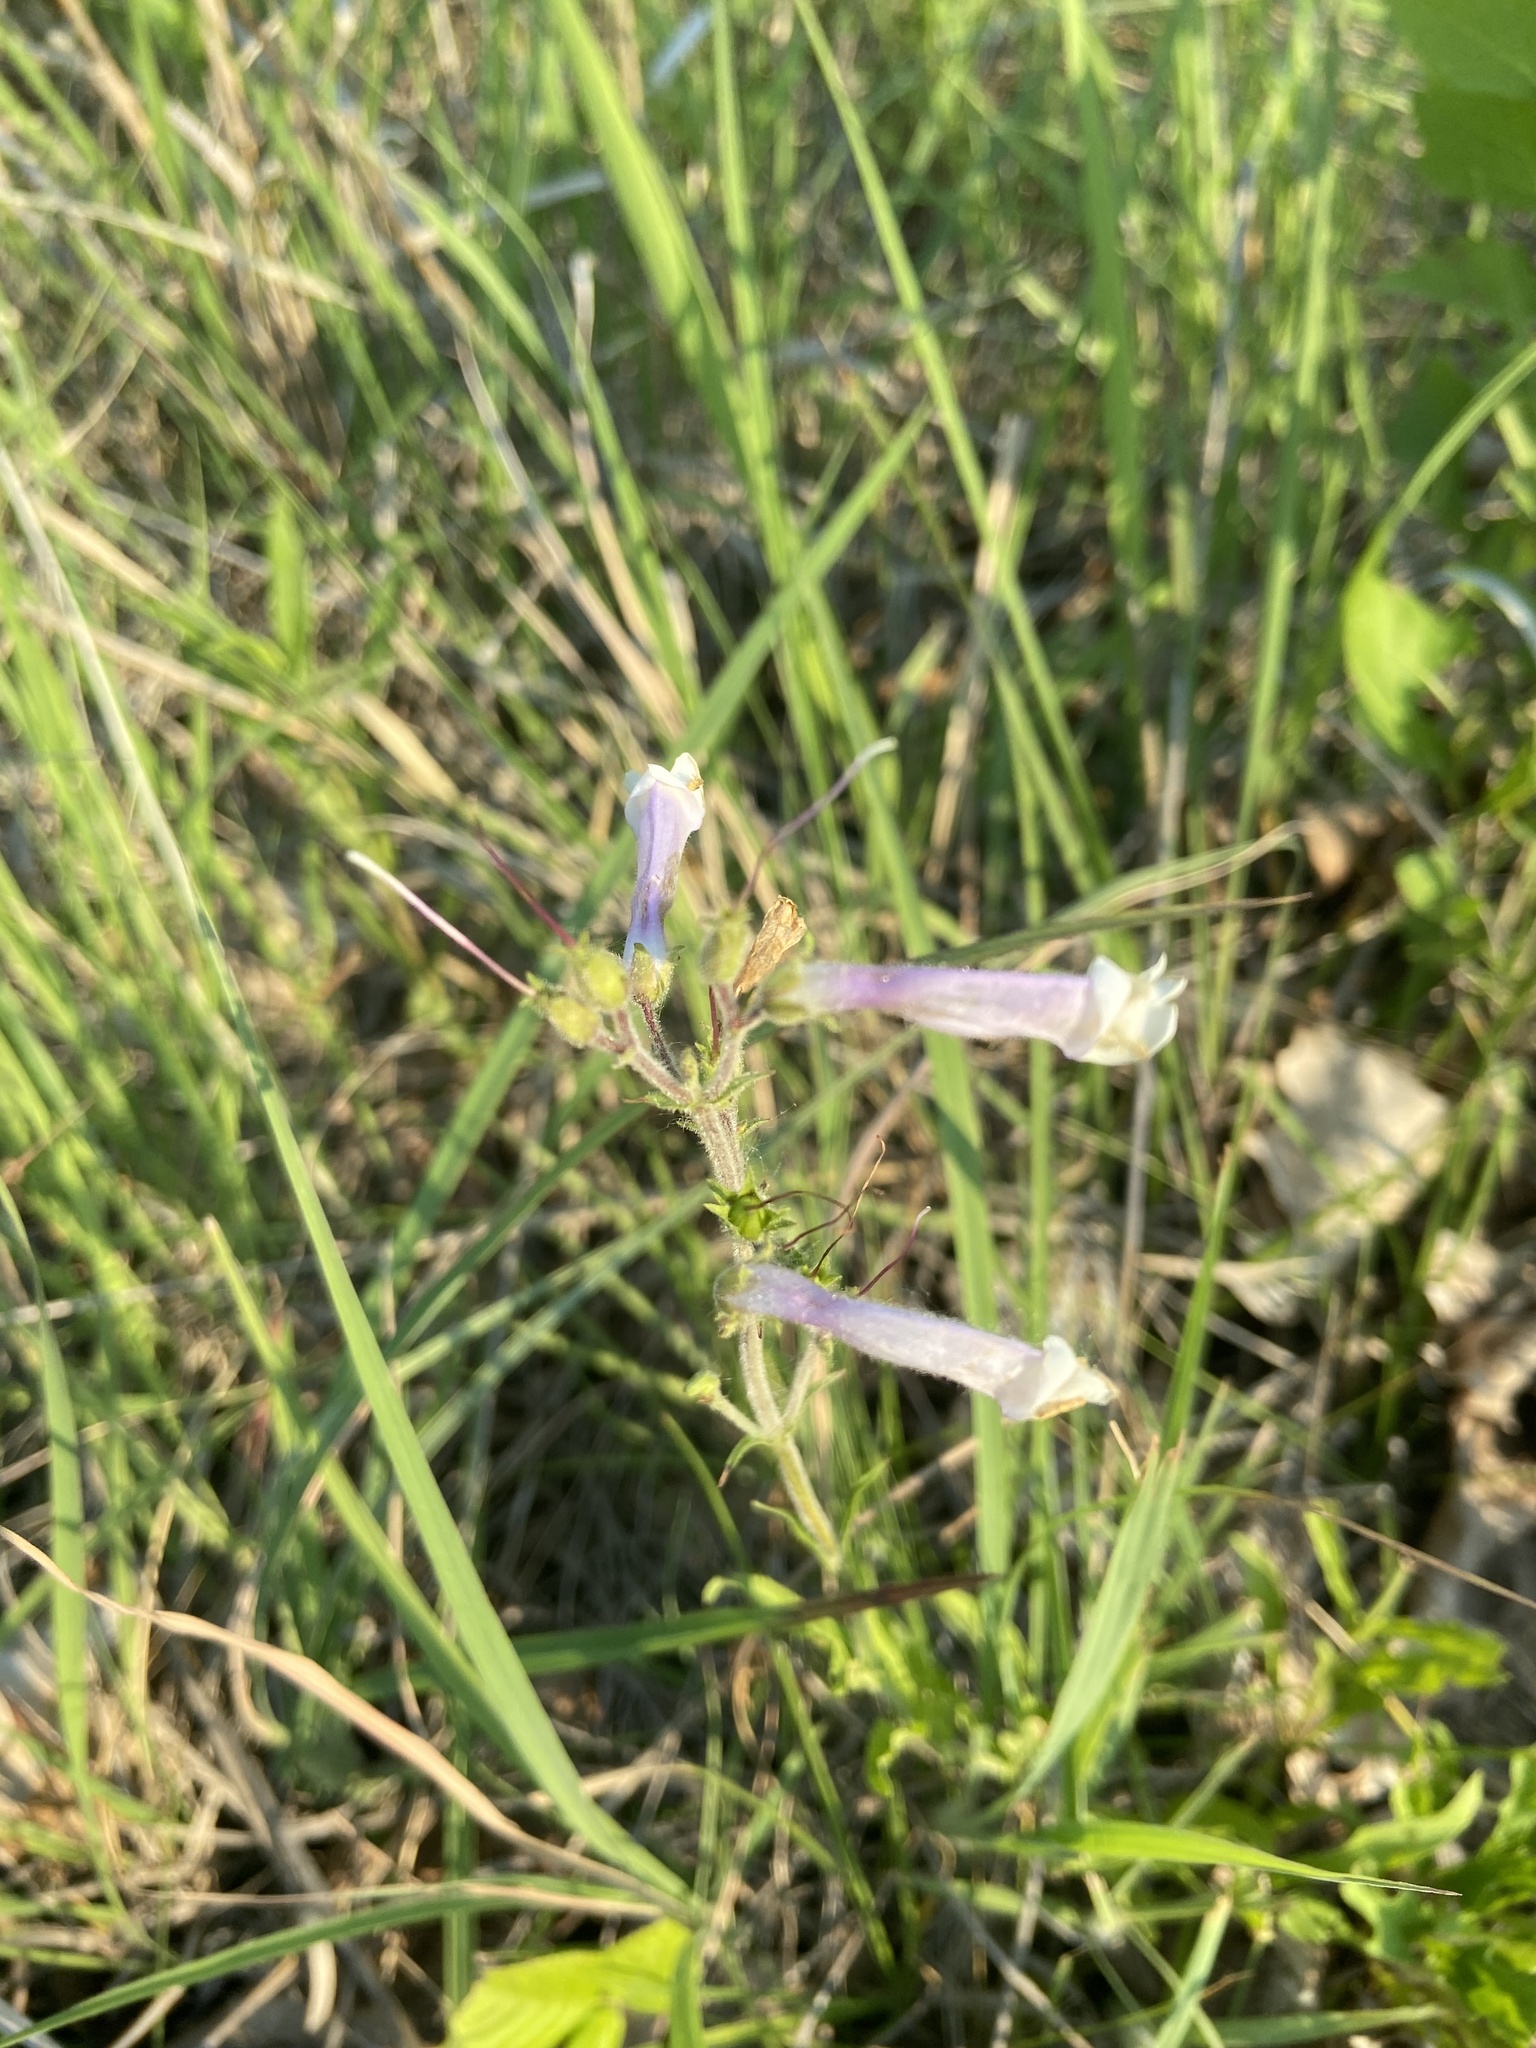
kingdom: Plantae
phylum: Tracheophyta
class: Magnoliopsida
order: Lamiales
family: Plantaginaceae
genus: Penstemon
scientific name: Penstemon hirsutus
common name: Hairy beardtongue
